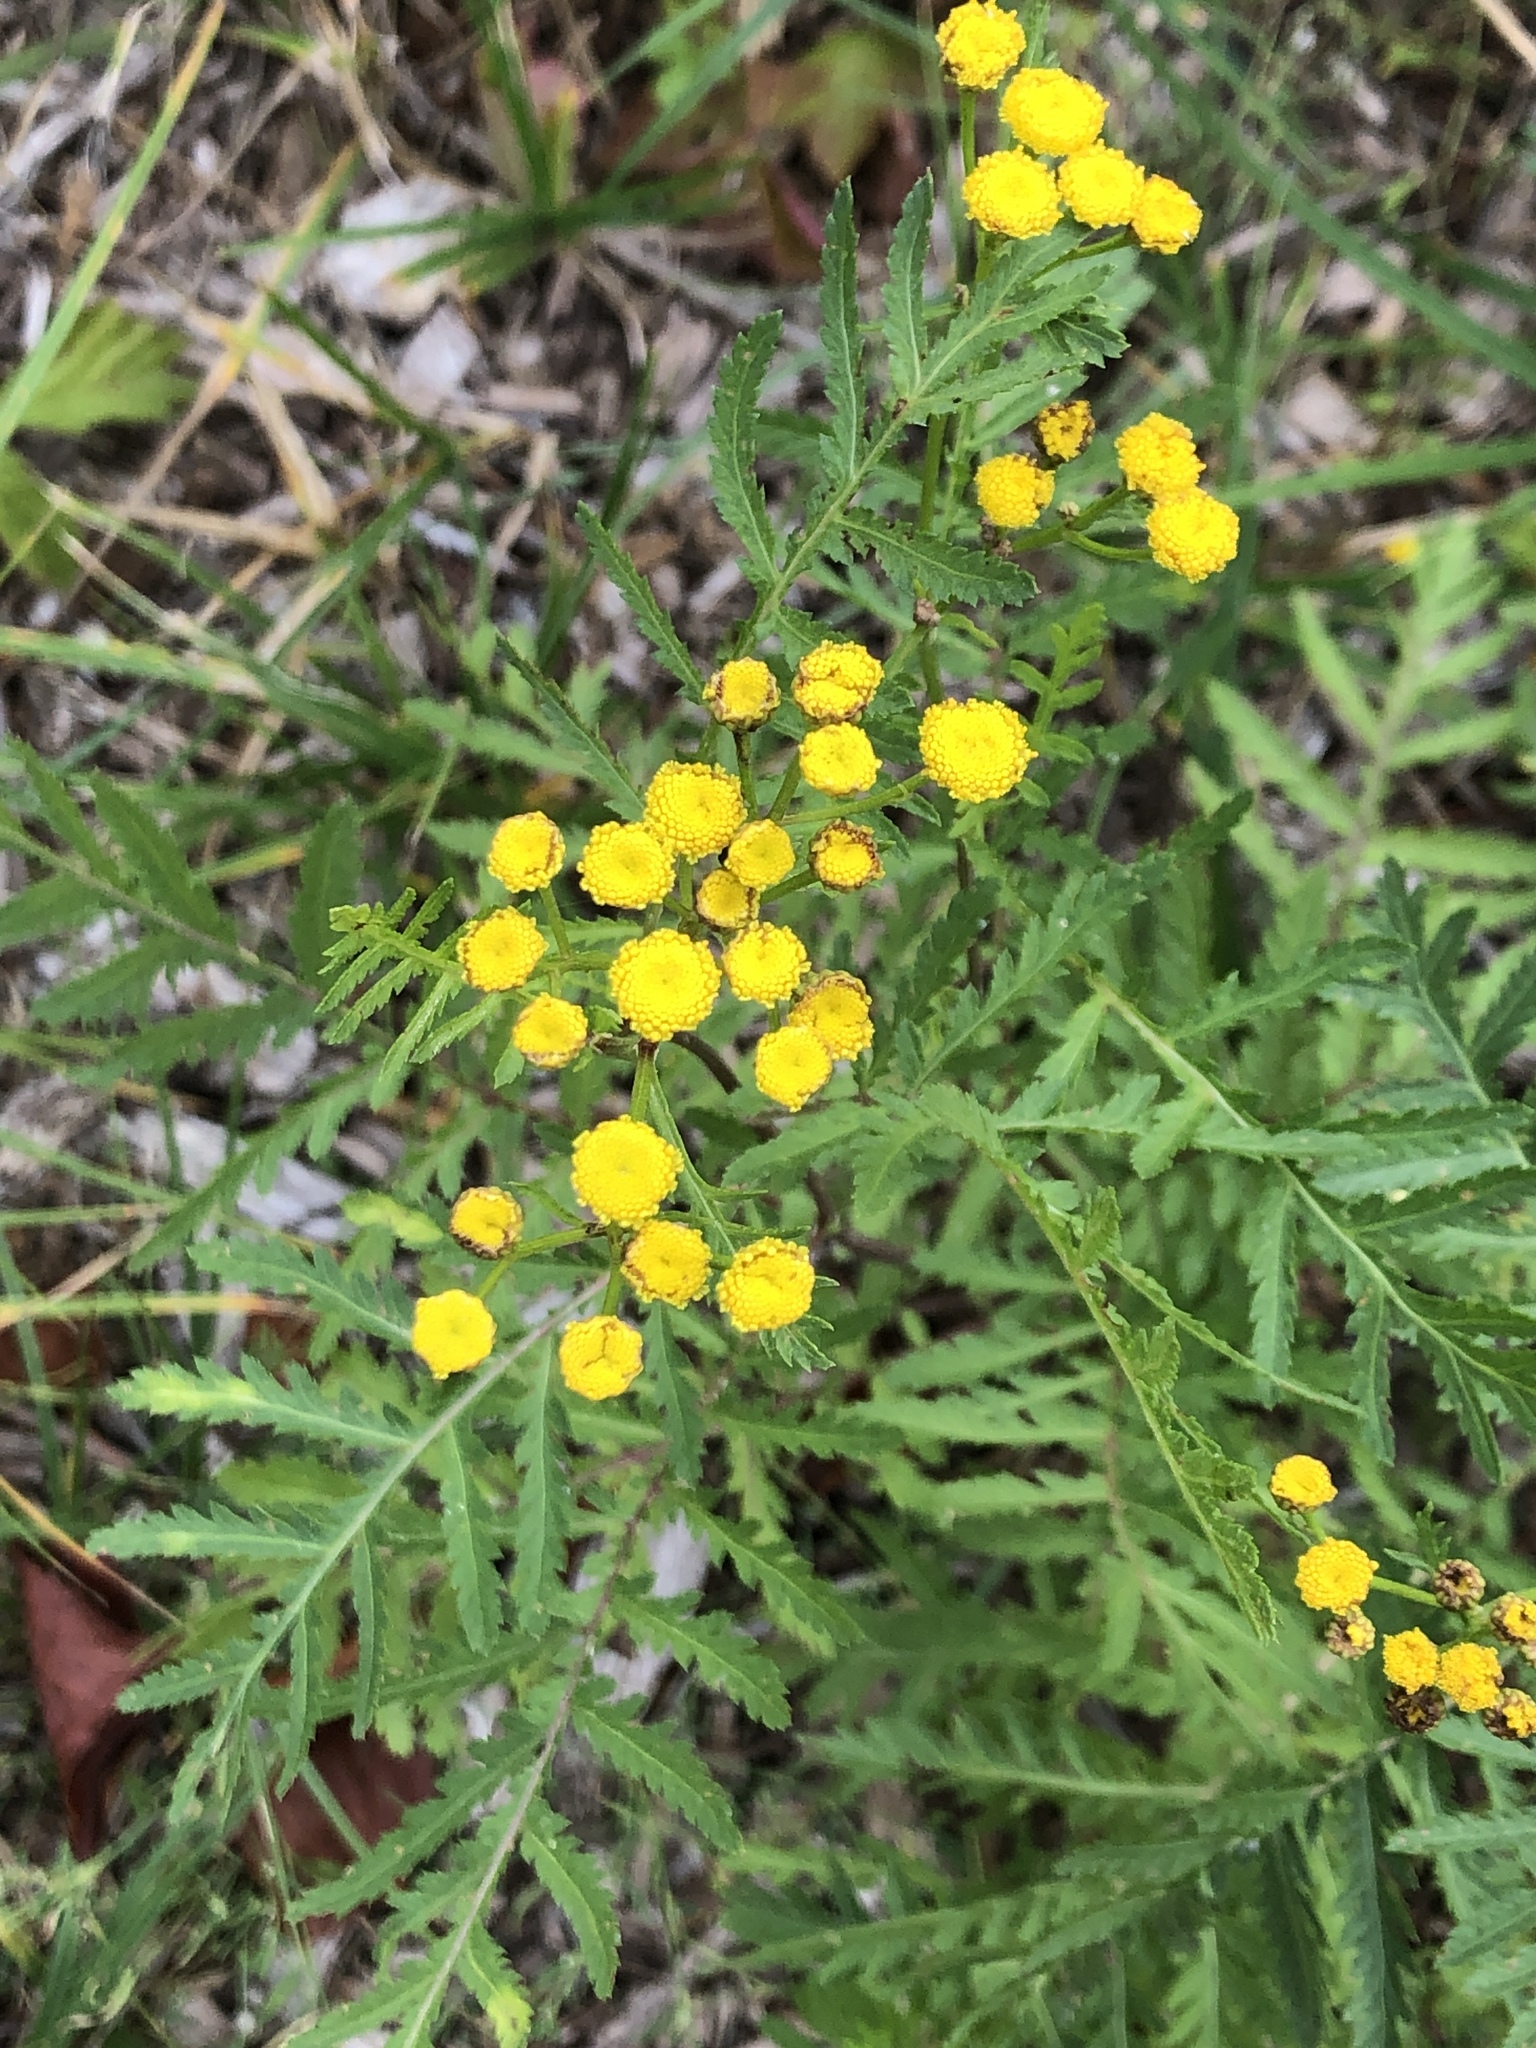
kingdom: Plantae
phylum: Tracheophyta
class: Magnoliopsida
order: Asterales
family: Asteraceae
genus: Tanacetum
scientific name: Tanacetum vulgare
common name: Common tansy
